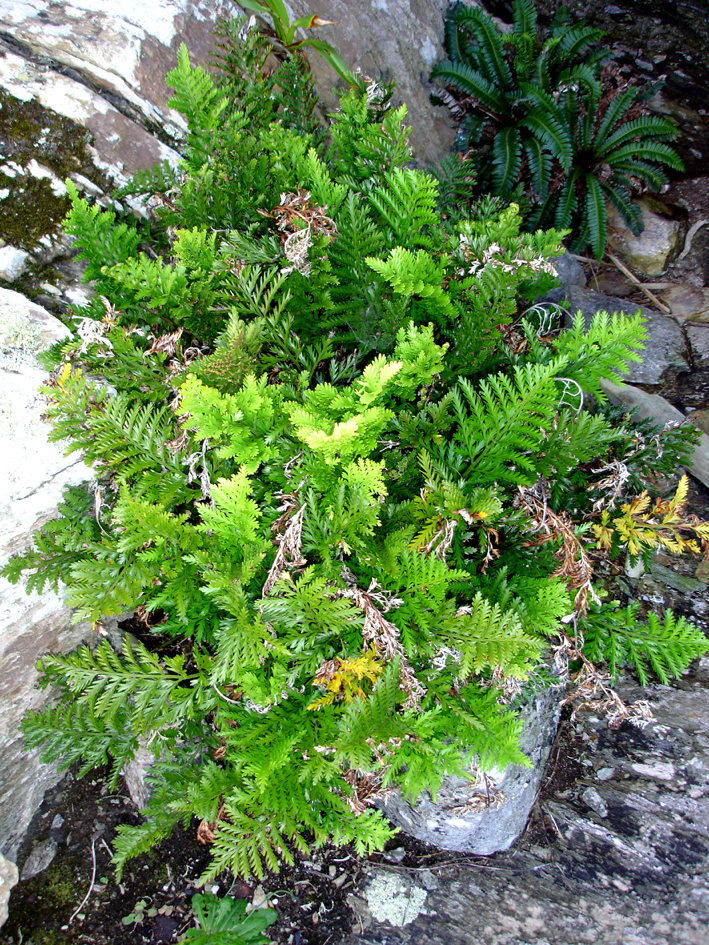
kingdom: Plantae
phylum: Tracheophyta
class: Polypodiopsida
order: Polypodiales
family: Aspleniaceae
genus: Asplenium
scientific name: Asplenium chathamense
